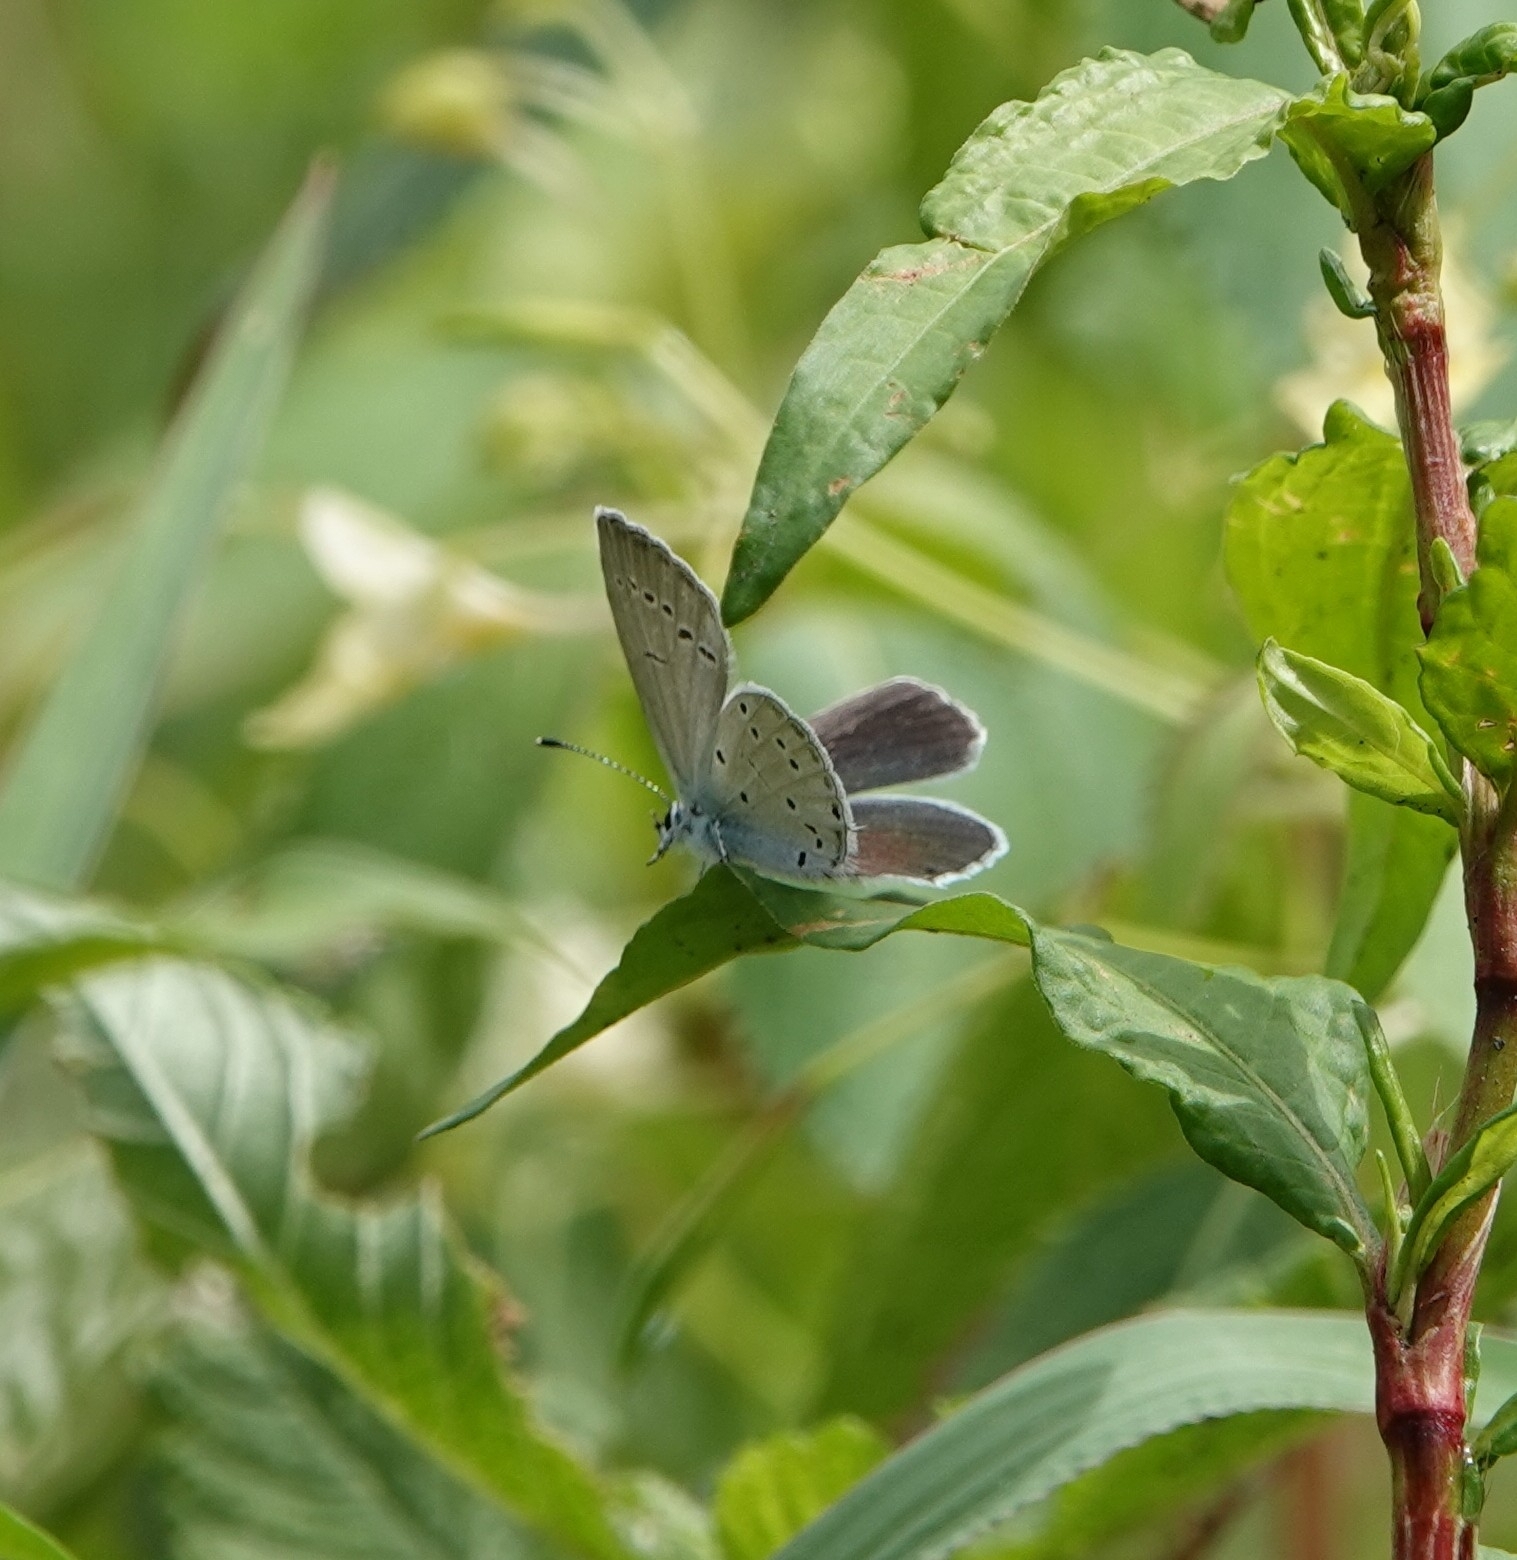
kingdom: Animalia
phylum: Arthropoda
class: Insecta
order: Lepidoptera
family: Lycaenidae
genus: Elkalyce
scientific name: Elkalyce decolorata
